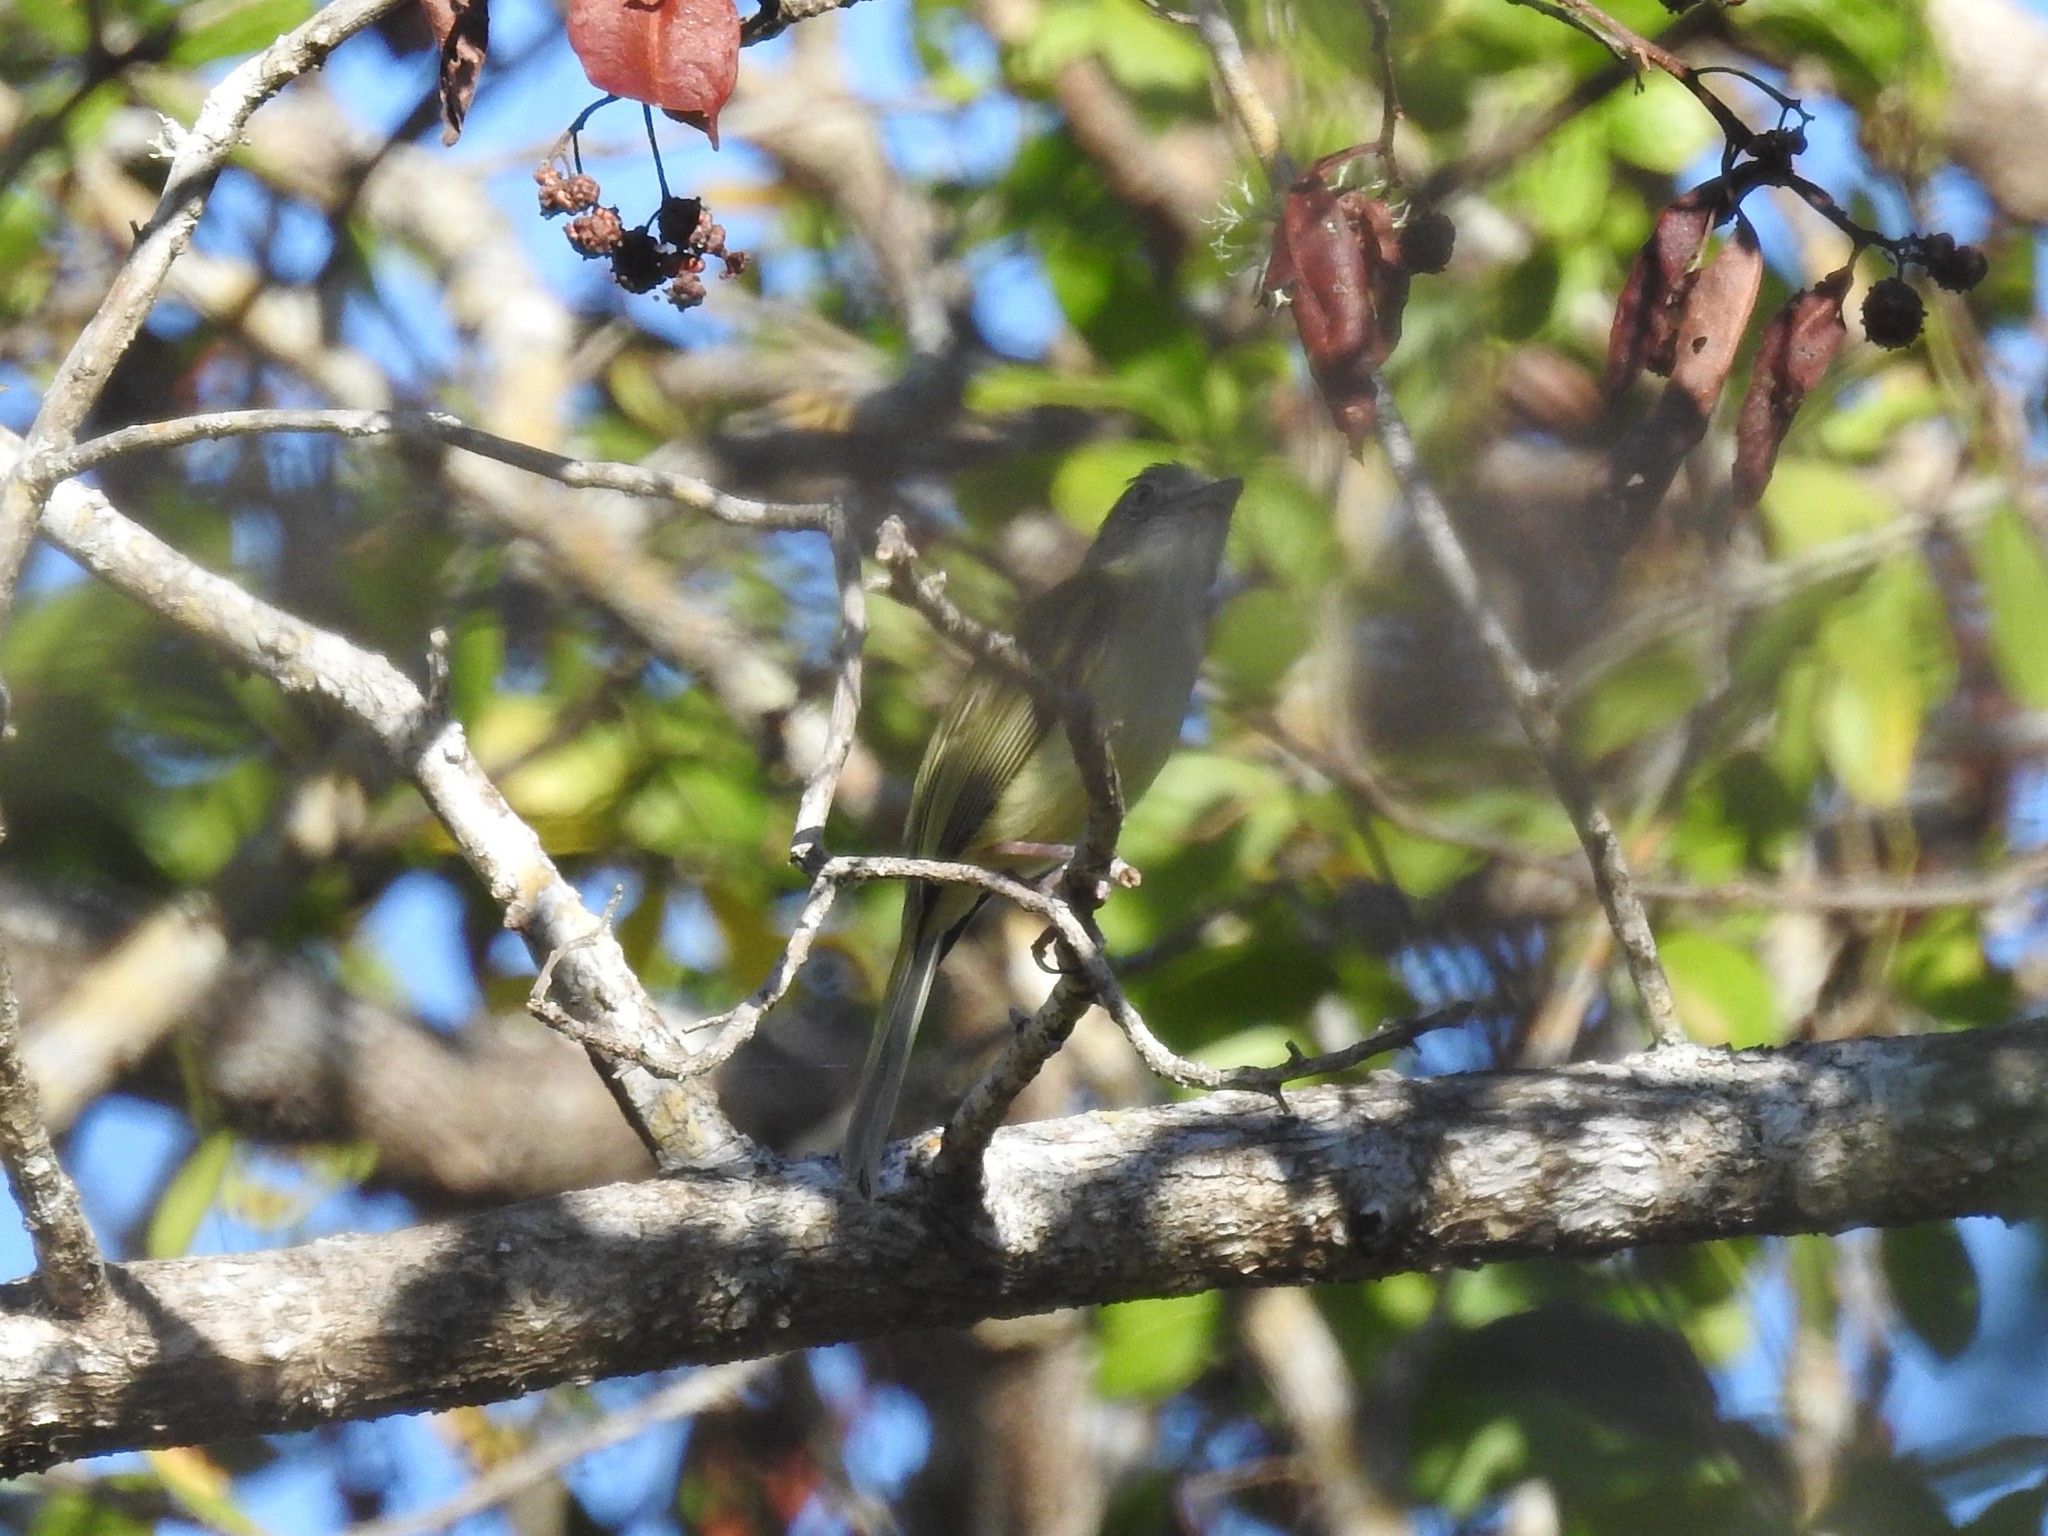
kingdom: Animalia
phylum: Chordata
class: Aves
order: Passeriformes
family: Tyrannidae
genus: Tolmomyias
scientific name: Tolmomyias sulphurescens
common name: Yellow-olive flycatcher
